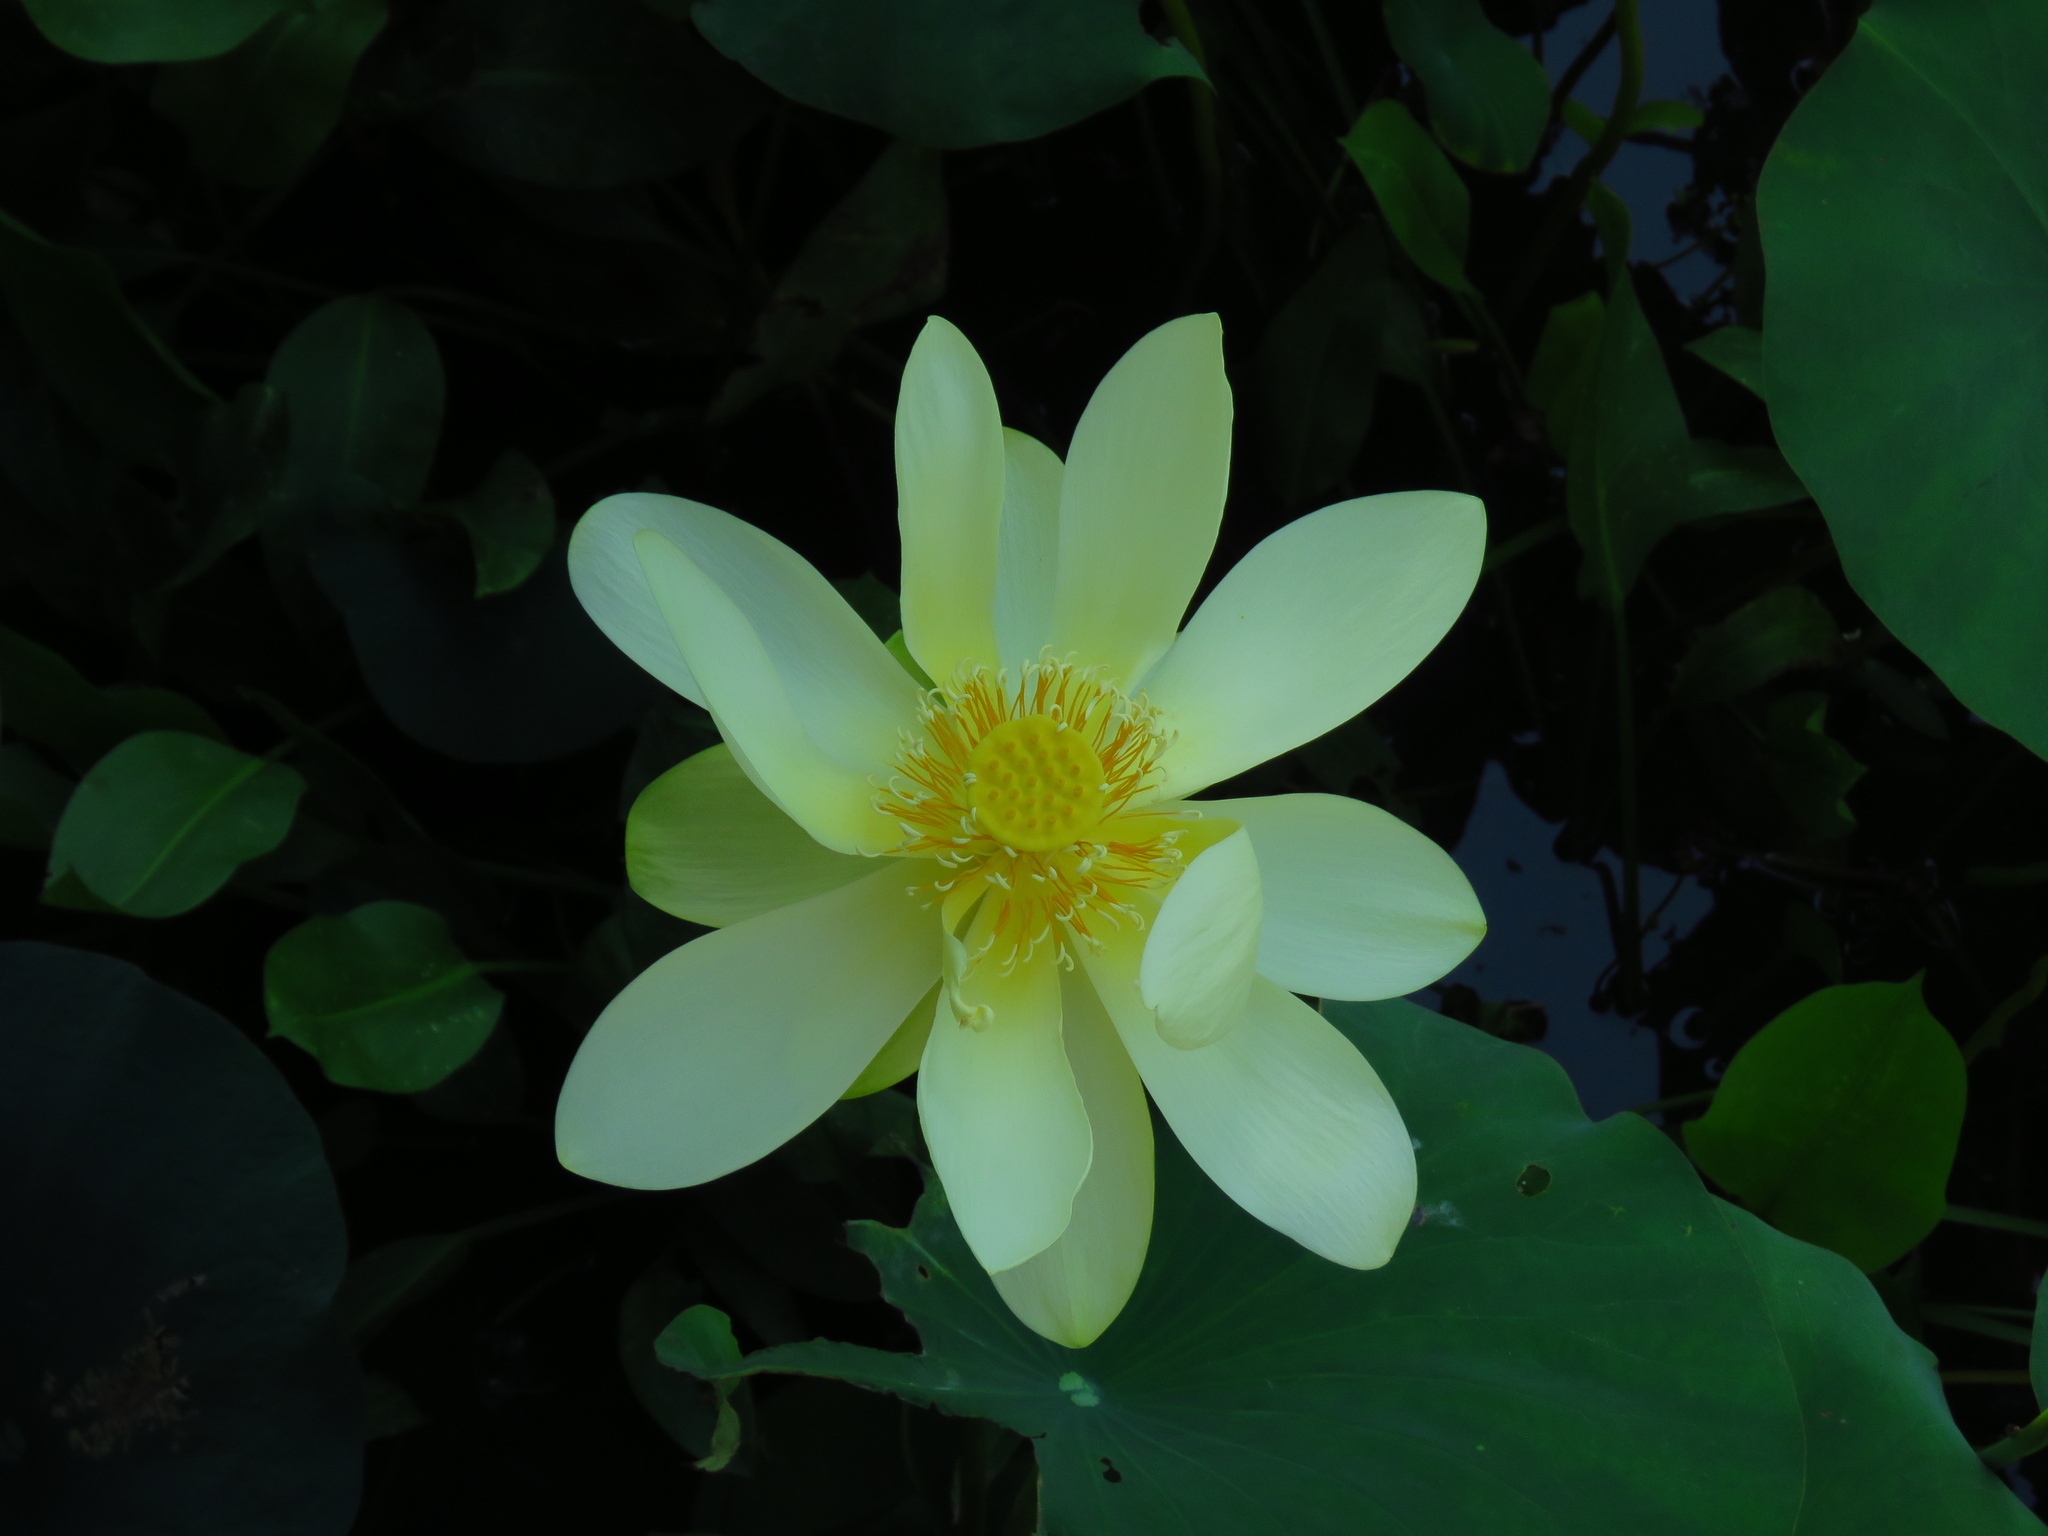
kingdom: Plantae
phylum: Tracheophyta
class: Magnoliopsida
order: Proteales
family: Nelumbonaceae
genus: Nelumbo
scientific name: Nelumbo lutea
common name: American lotus
